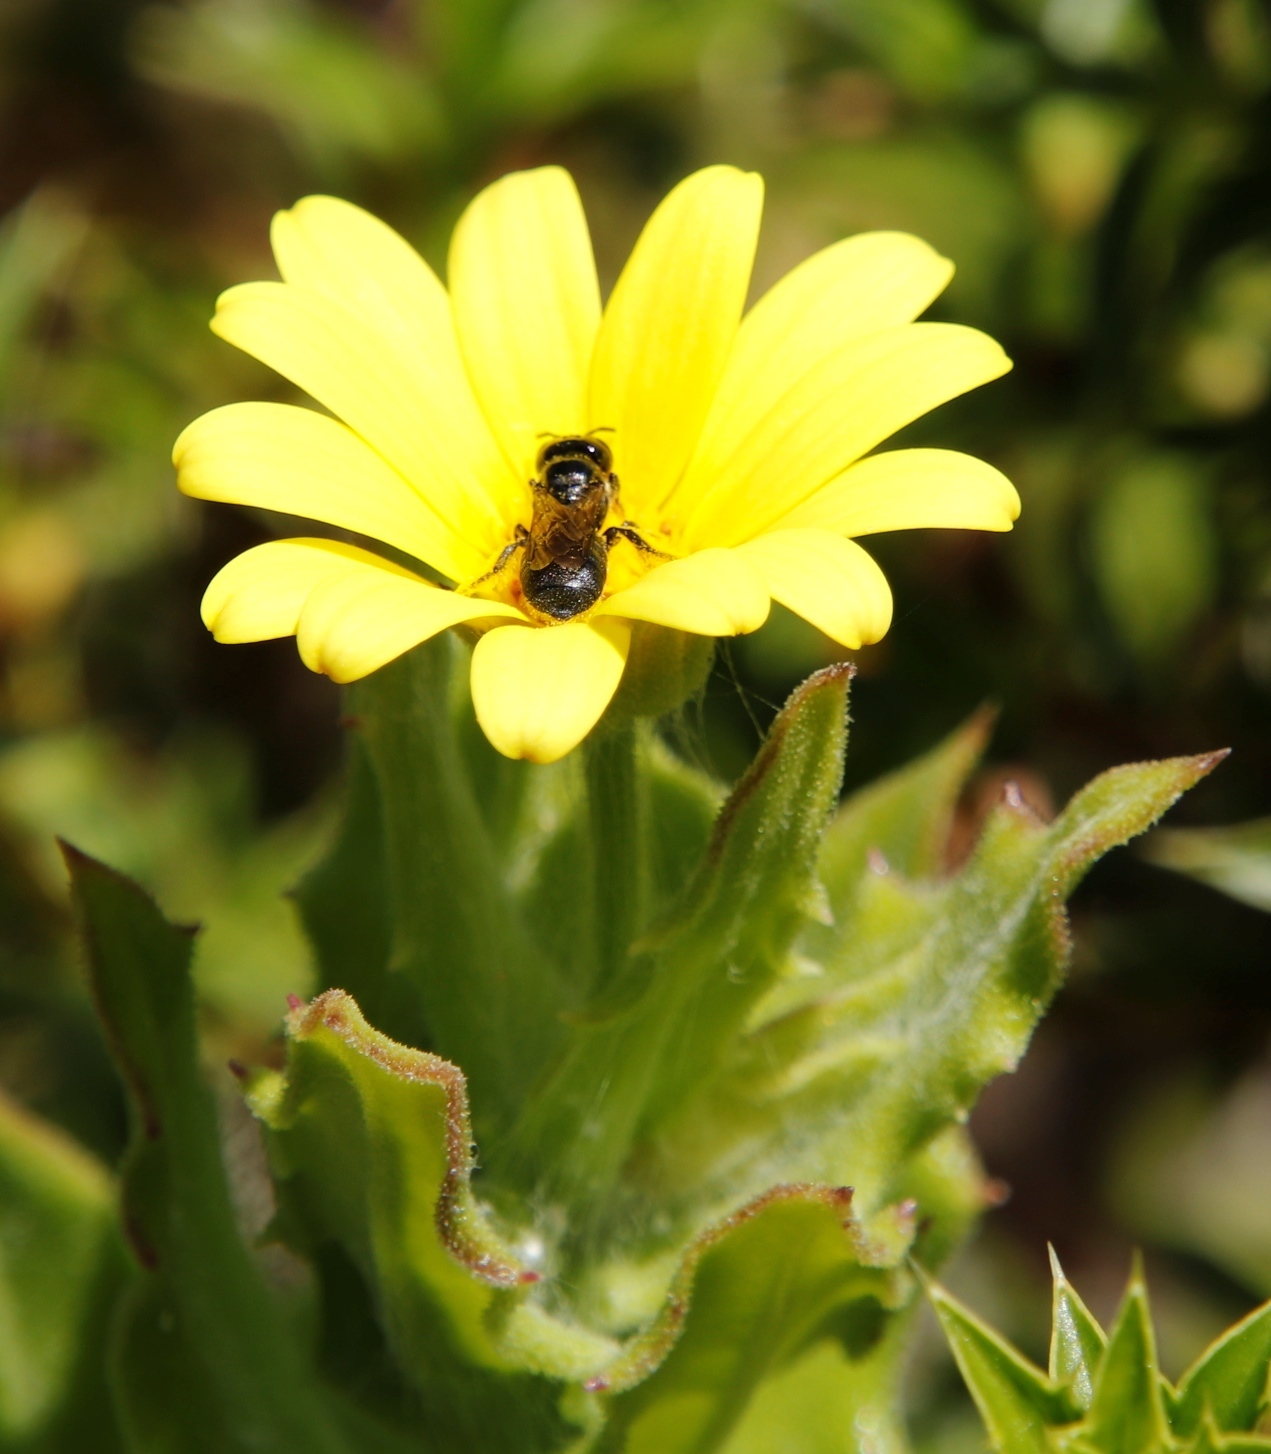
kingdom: Plantae
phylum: Tracheophyta
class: Magnoliopsida
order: Asterales
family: Asteraceae
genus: Osteospermum
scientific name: Osteospermum ilicifolium
